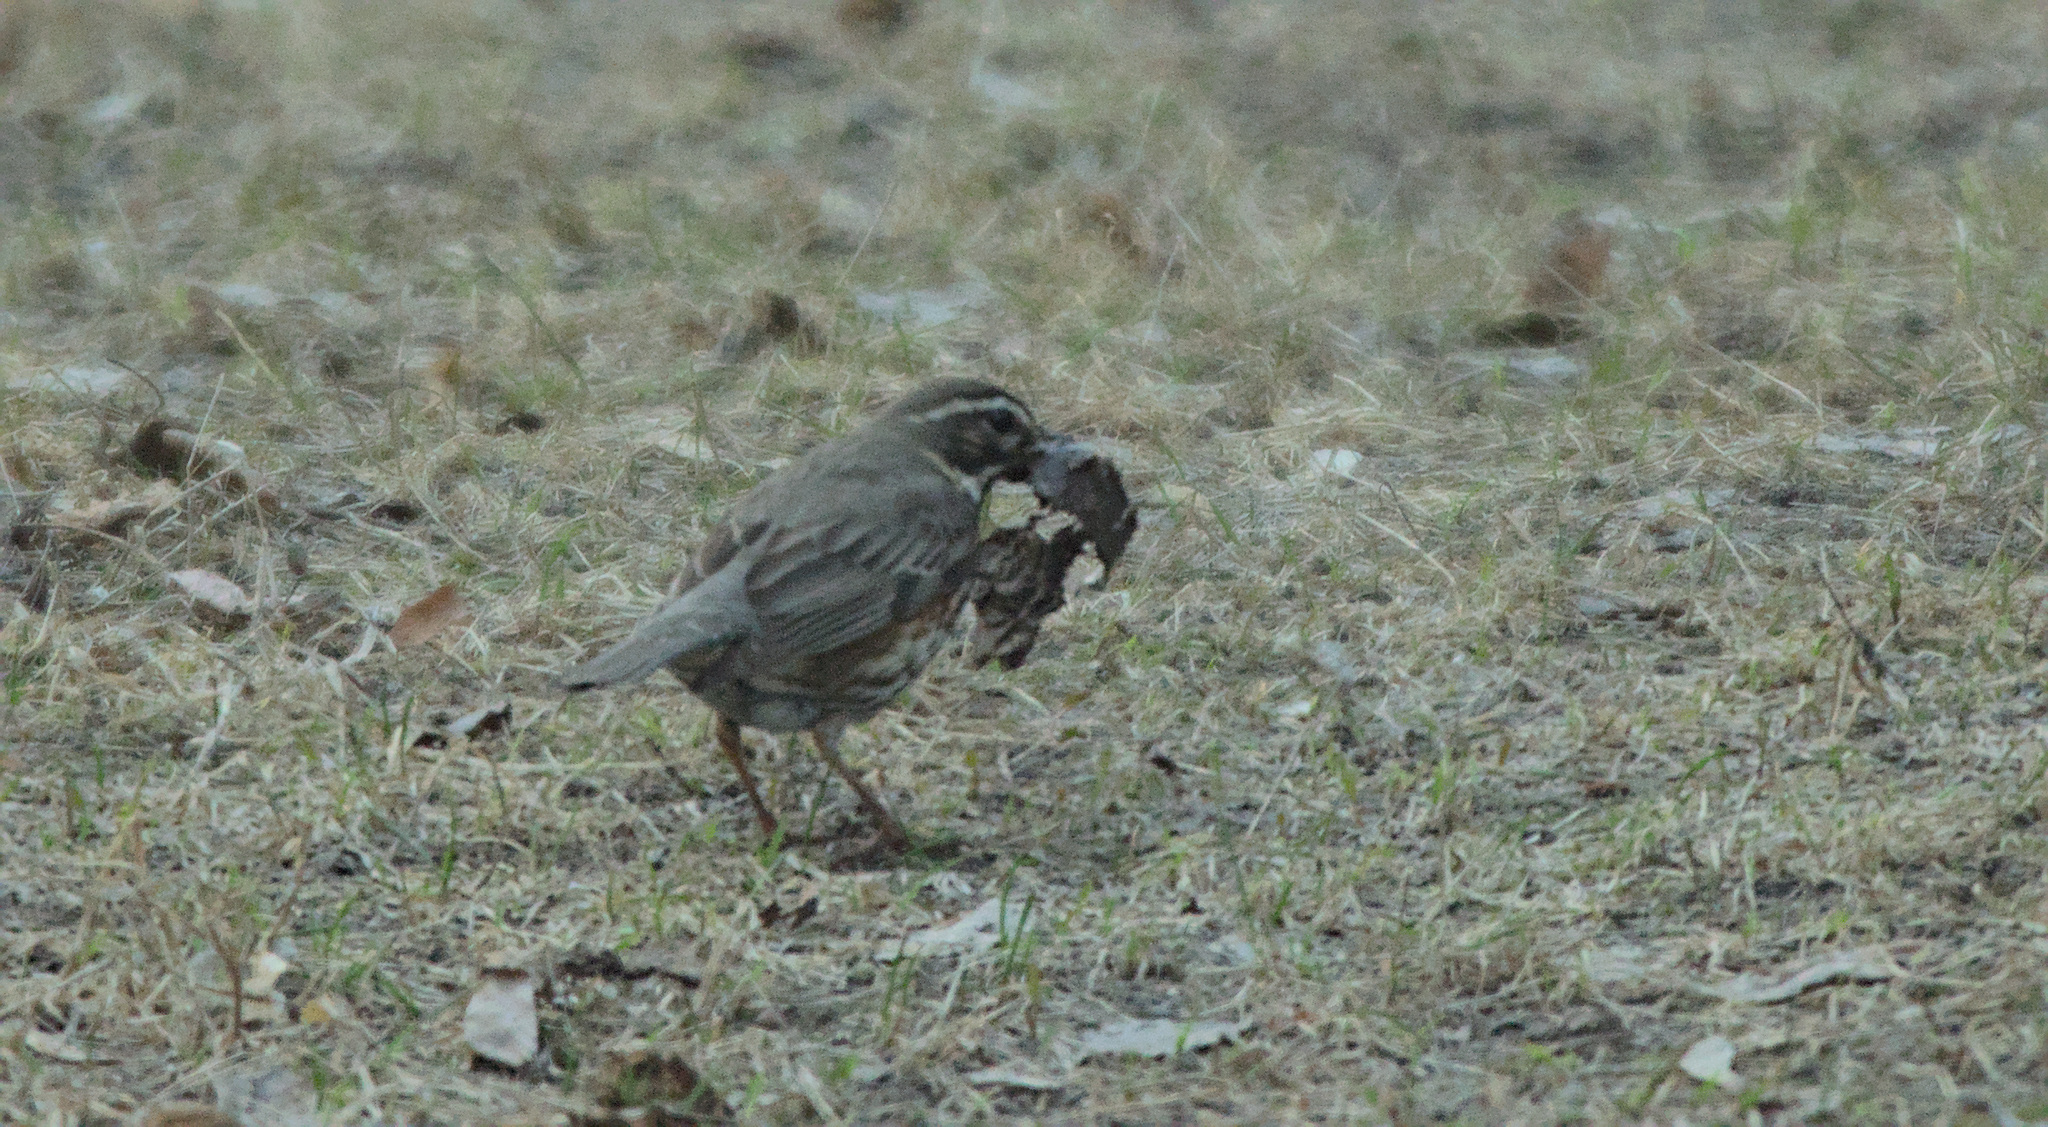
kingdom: Animalia
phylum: Chordata
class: Aves
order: Passeriformes
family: Turdidae
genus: Turdus
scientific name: Turdus iliacus
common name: Redwing
